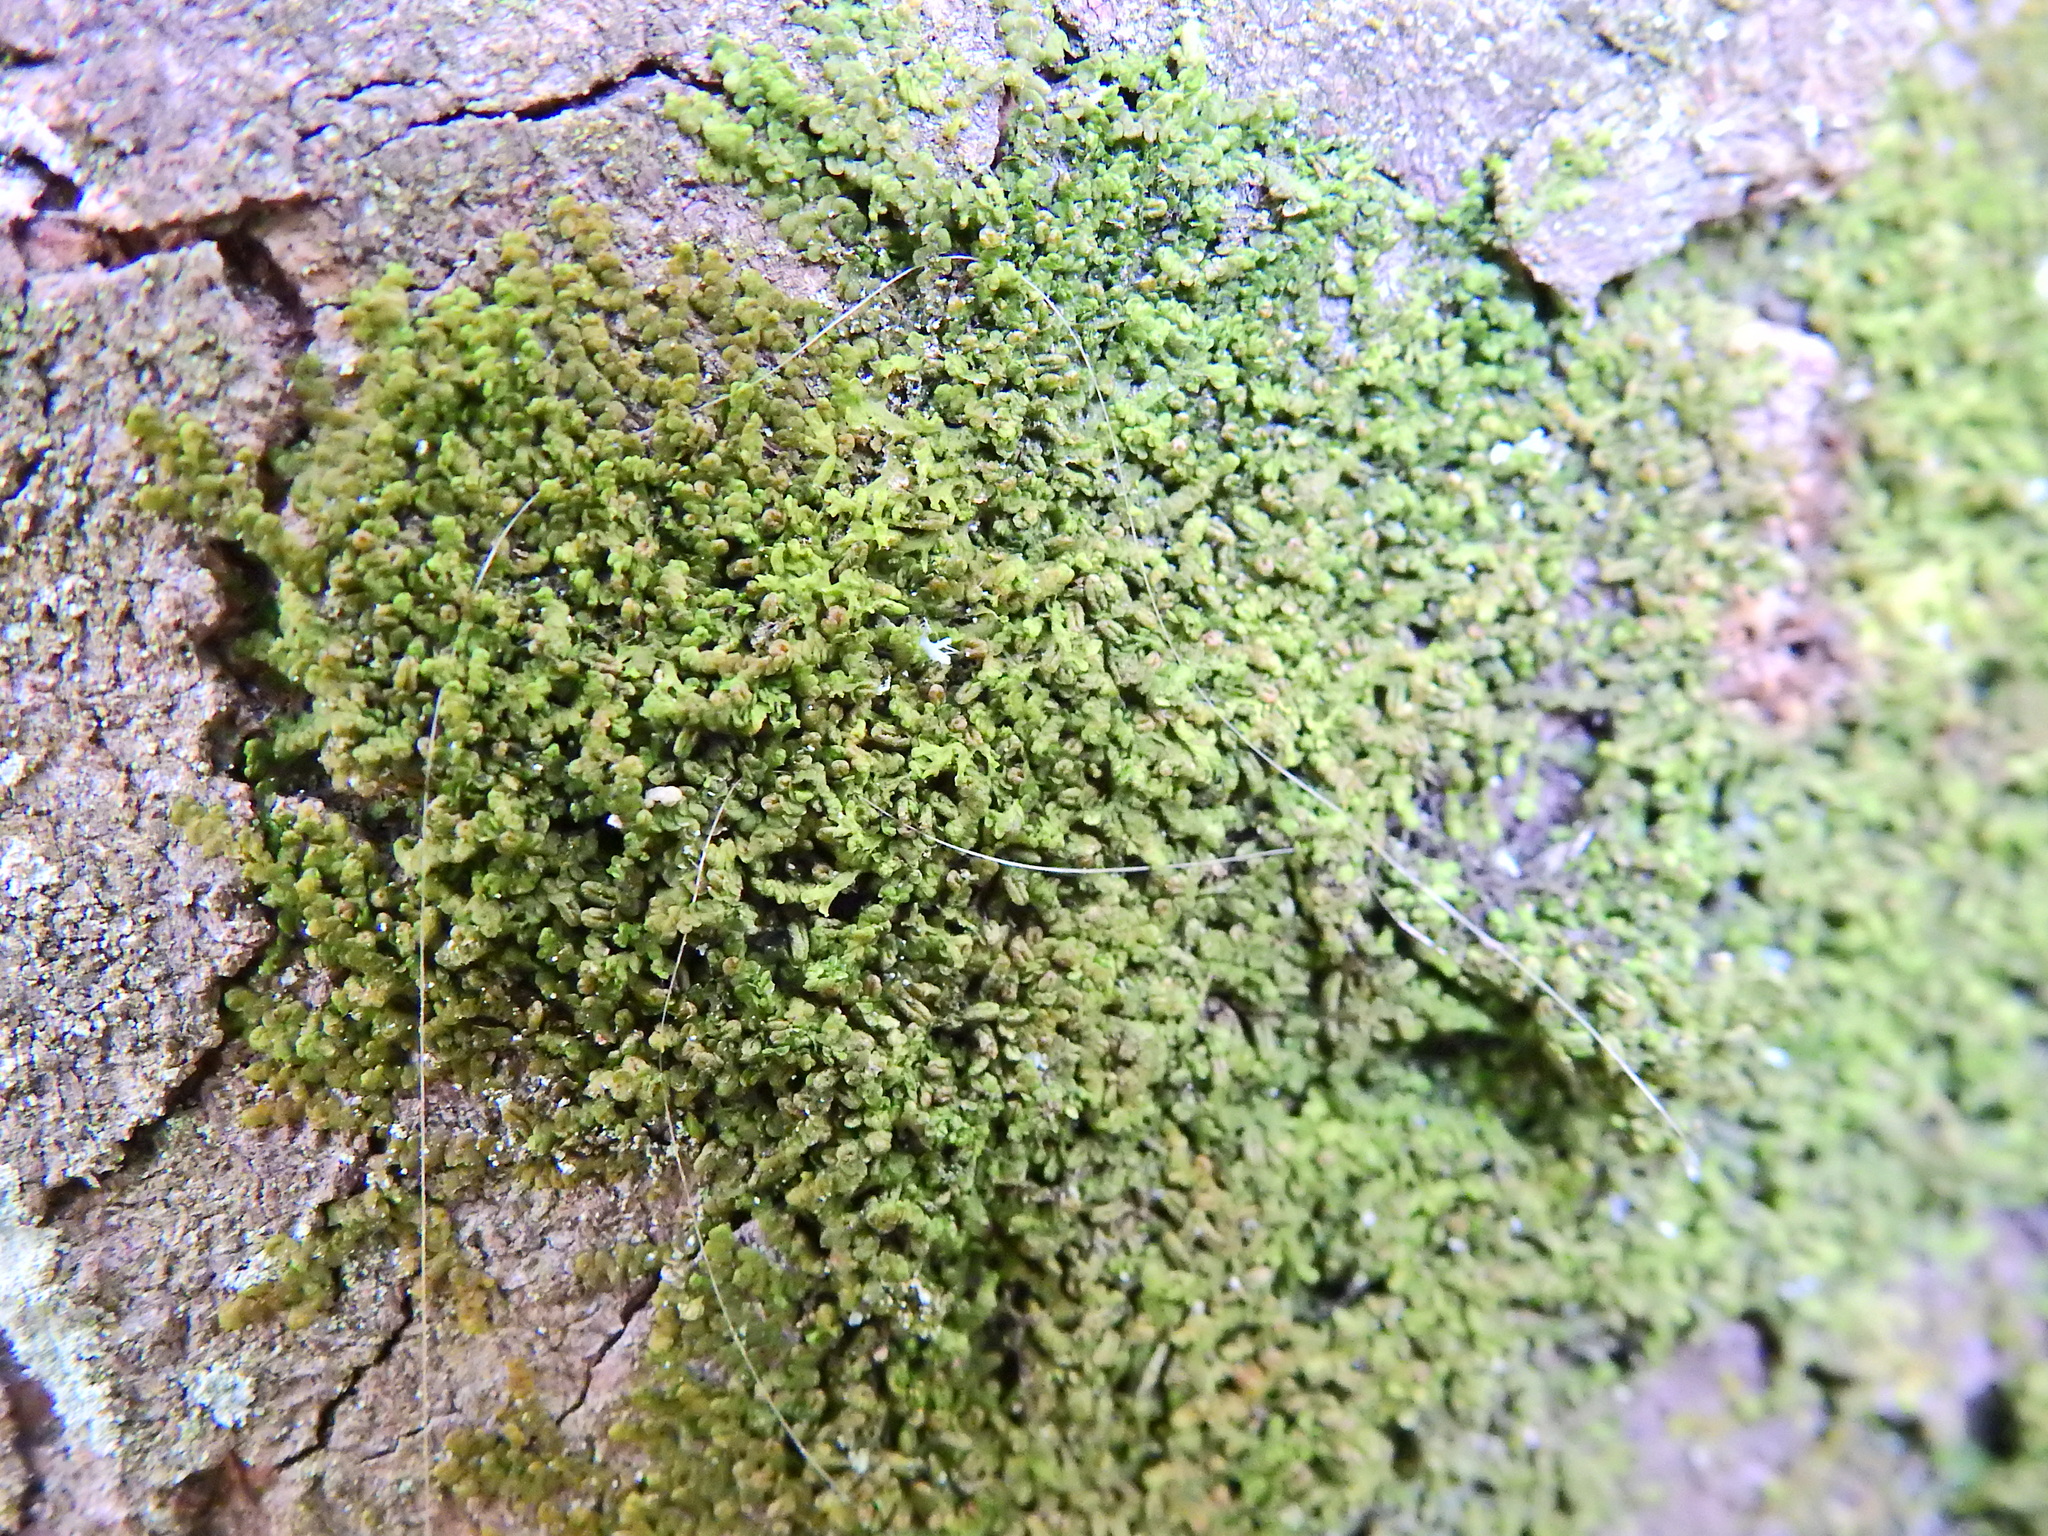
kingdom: Plantae
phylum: Marchantiophyta
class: Jungermanniopsida
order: Porellales
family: Frullaniaceae
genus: Frullania
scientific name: Frullania dilatata
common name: Dilated scalewort
